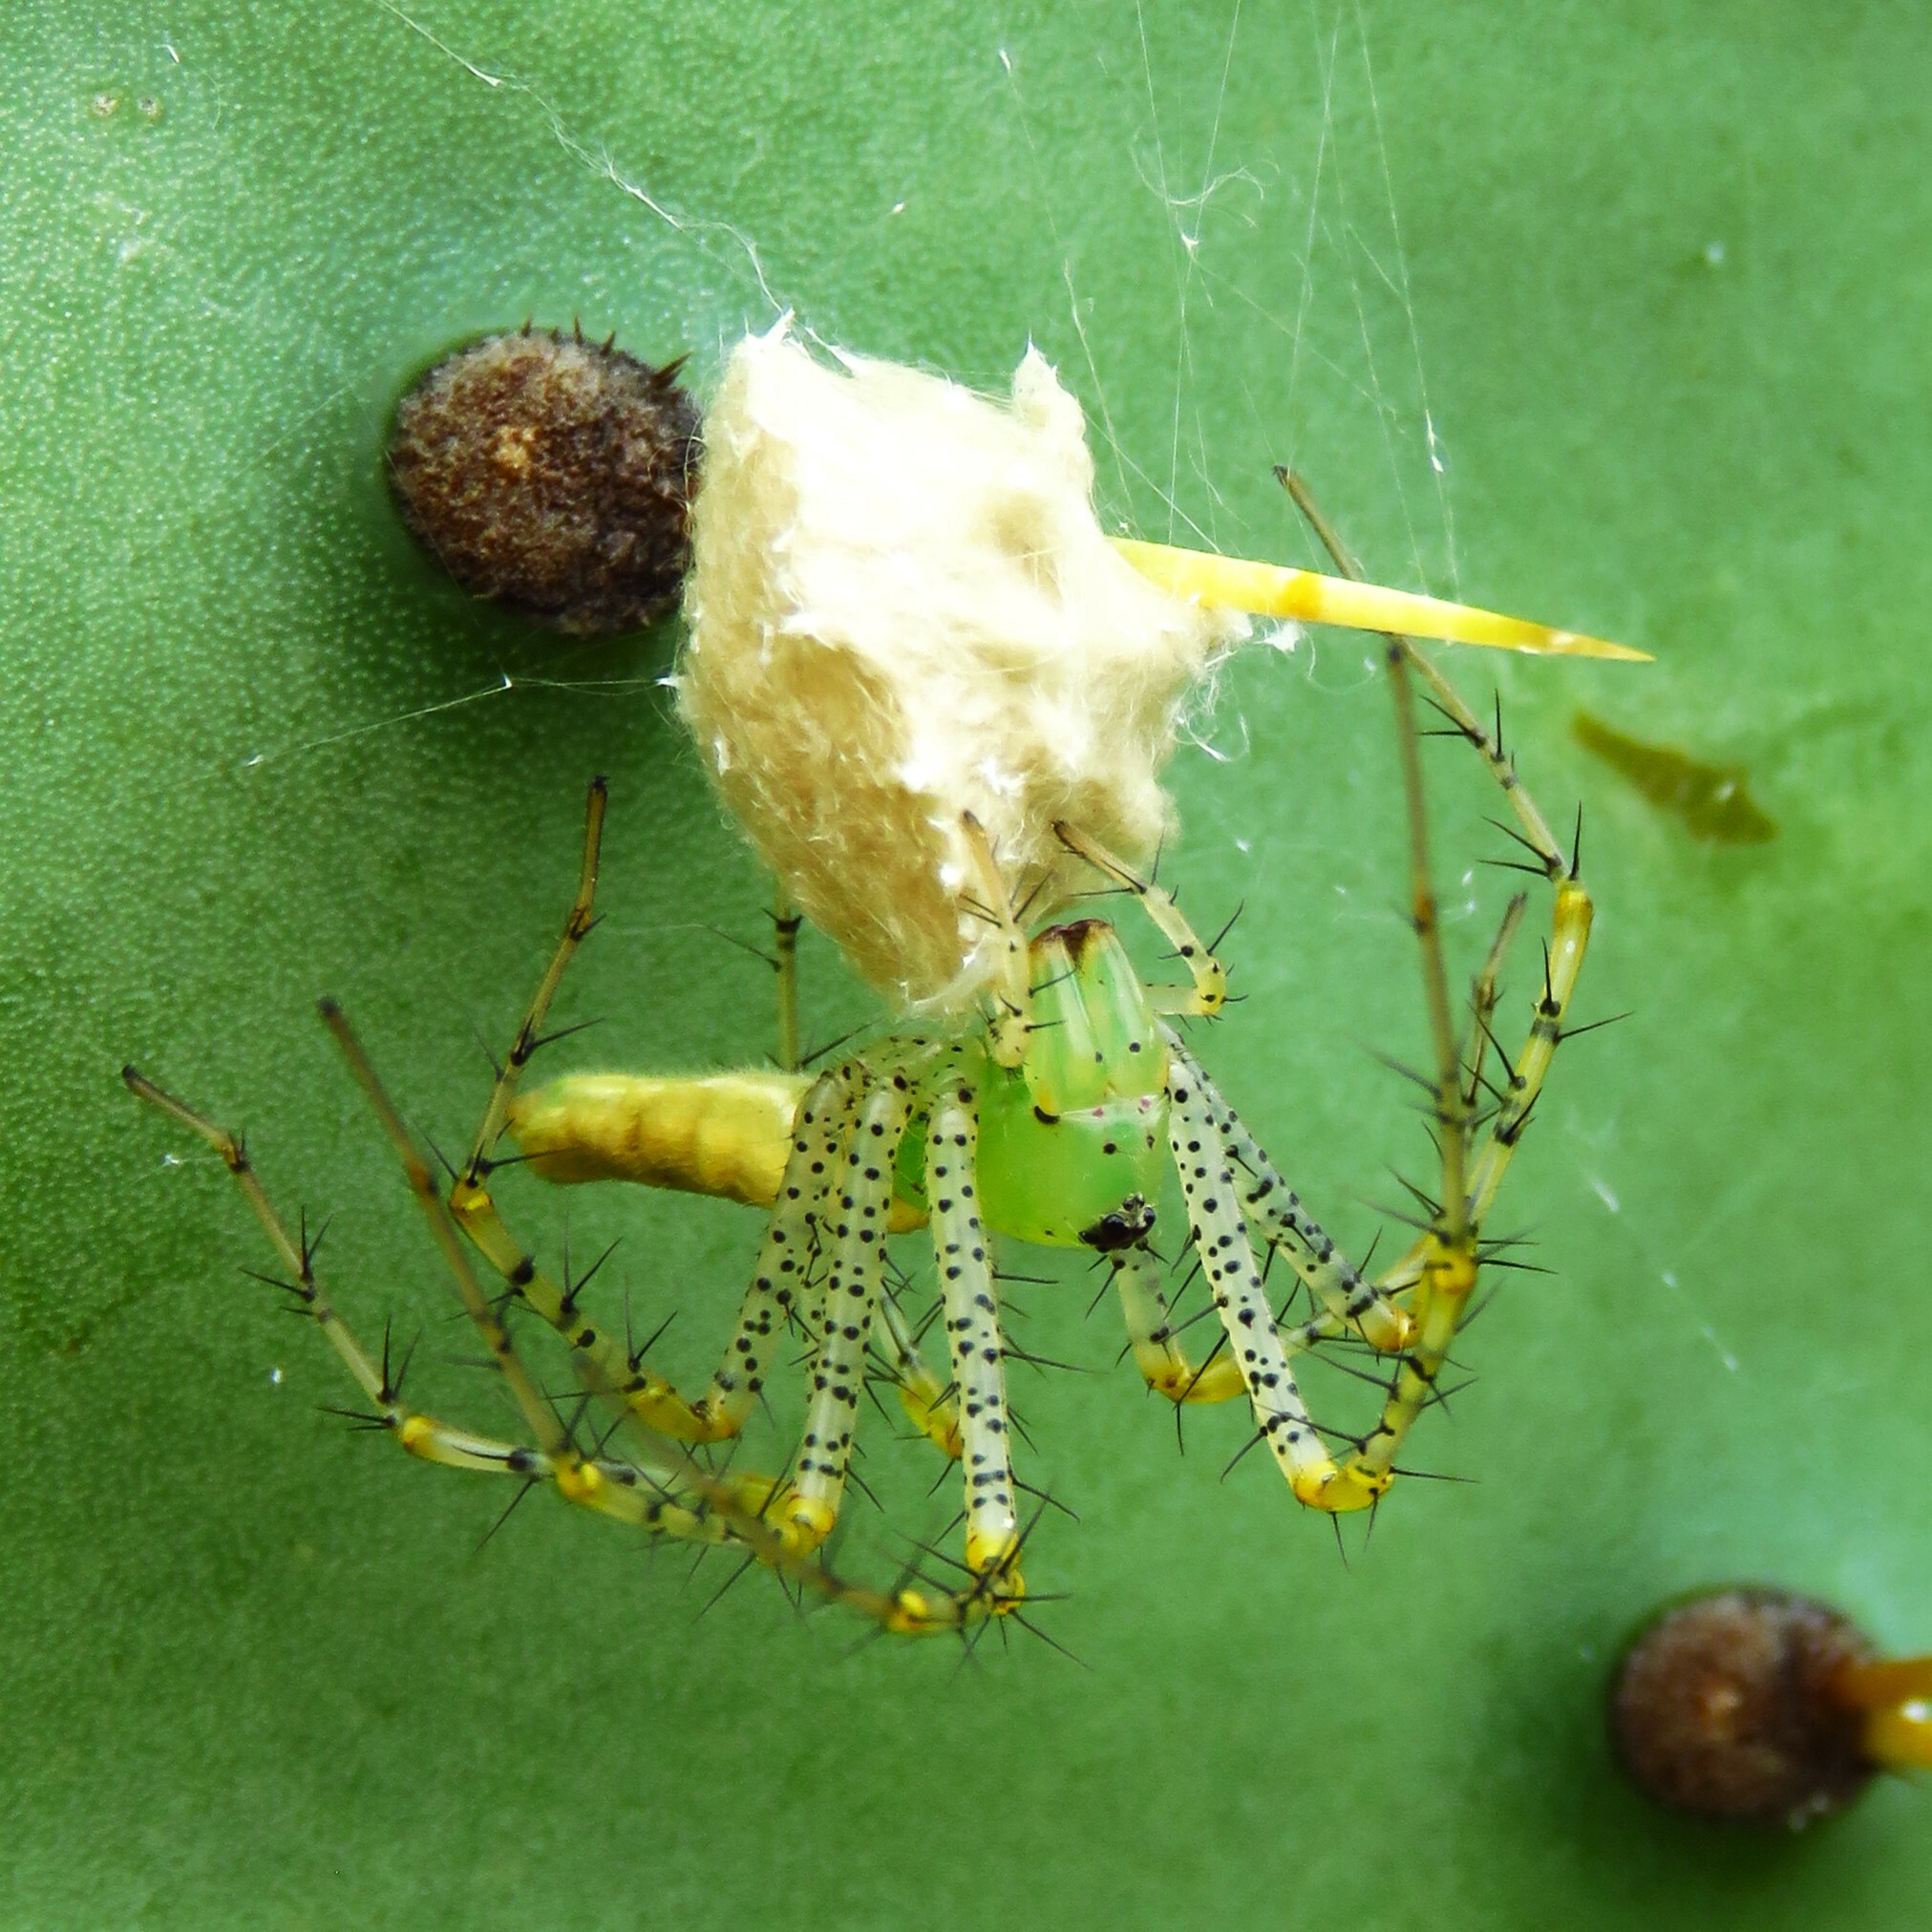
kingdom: Animalia
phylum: Arthropoda
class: Arachnida
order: Araneae
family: Oxyopidae
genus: Peucetia
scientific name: Peucetia viridans
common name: Lynx spiders
